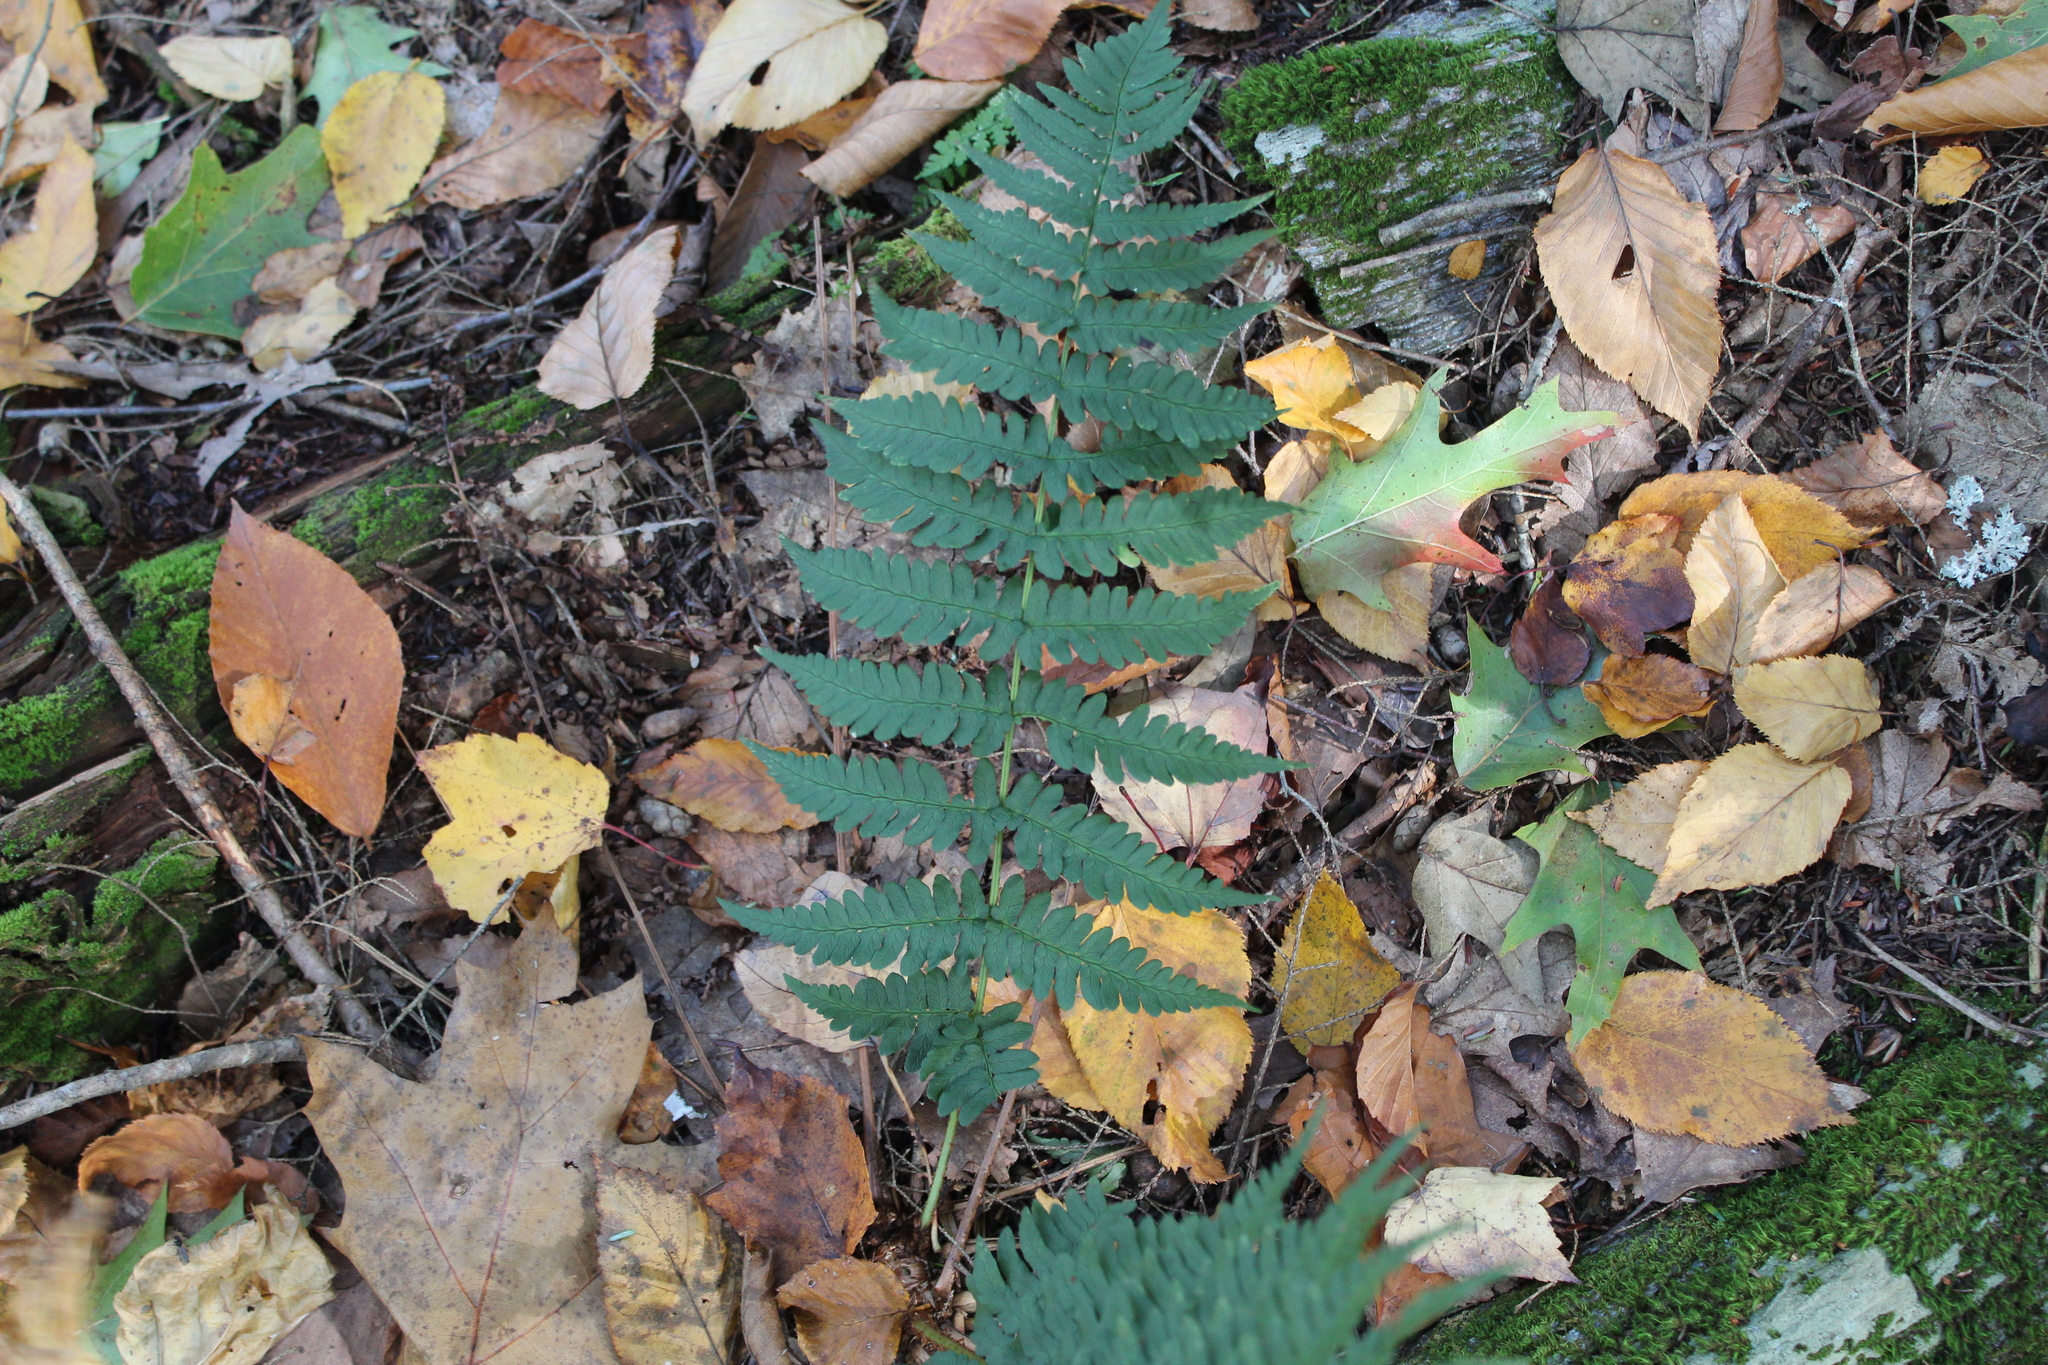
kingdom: Plantae
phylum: Tracheophyta
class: Polypodiopsida
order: Polypodiales
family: Dryopteridaceae
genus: Dryopteris
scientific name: Dryopteris marginalis
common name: Marginal wood fern
